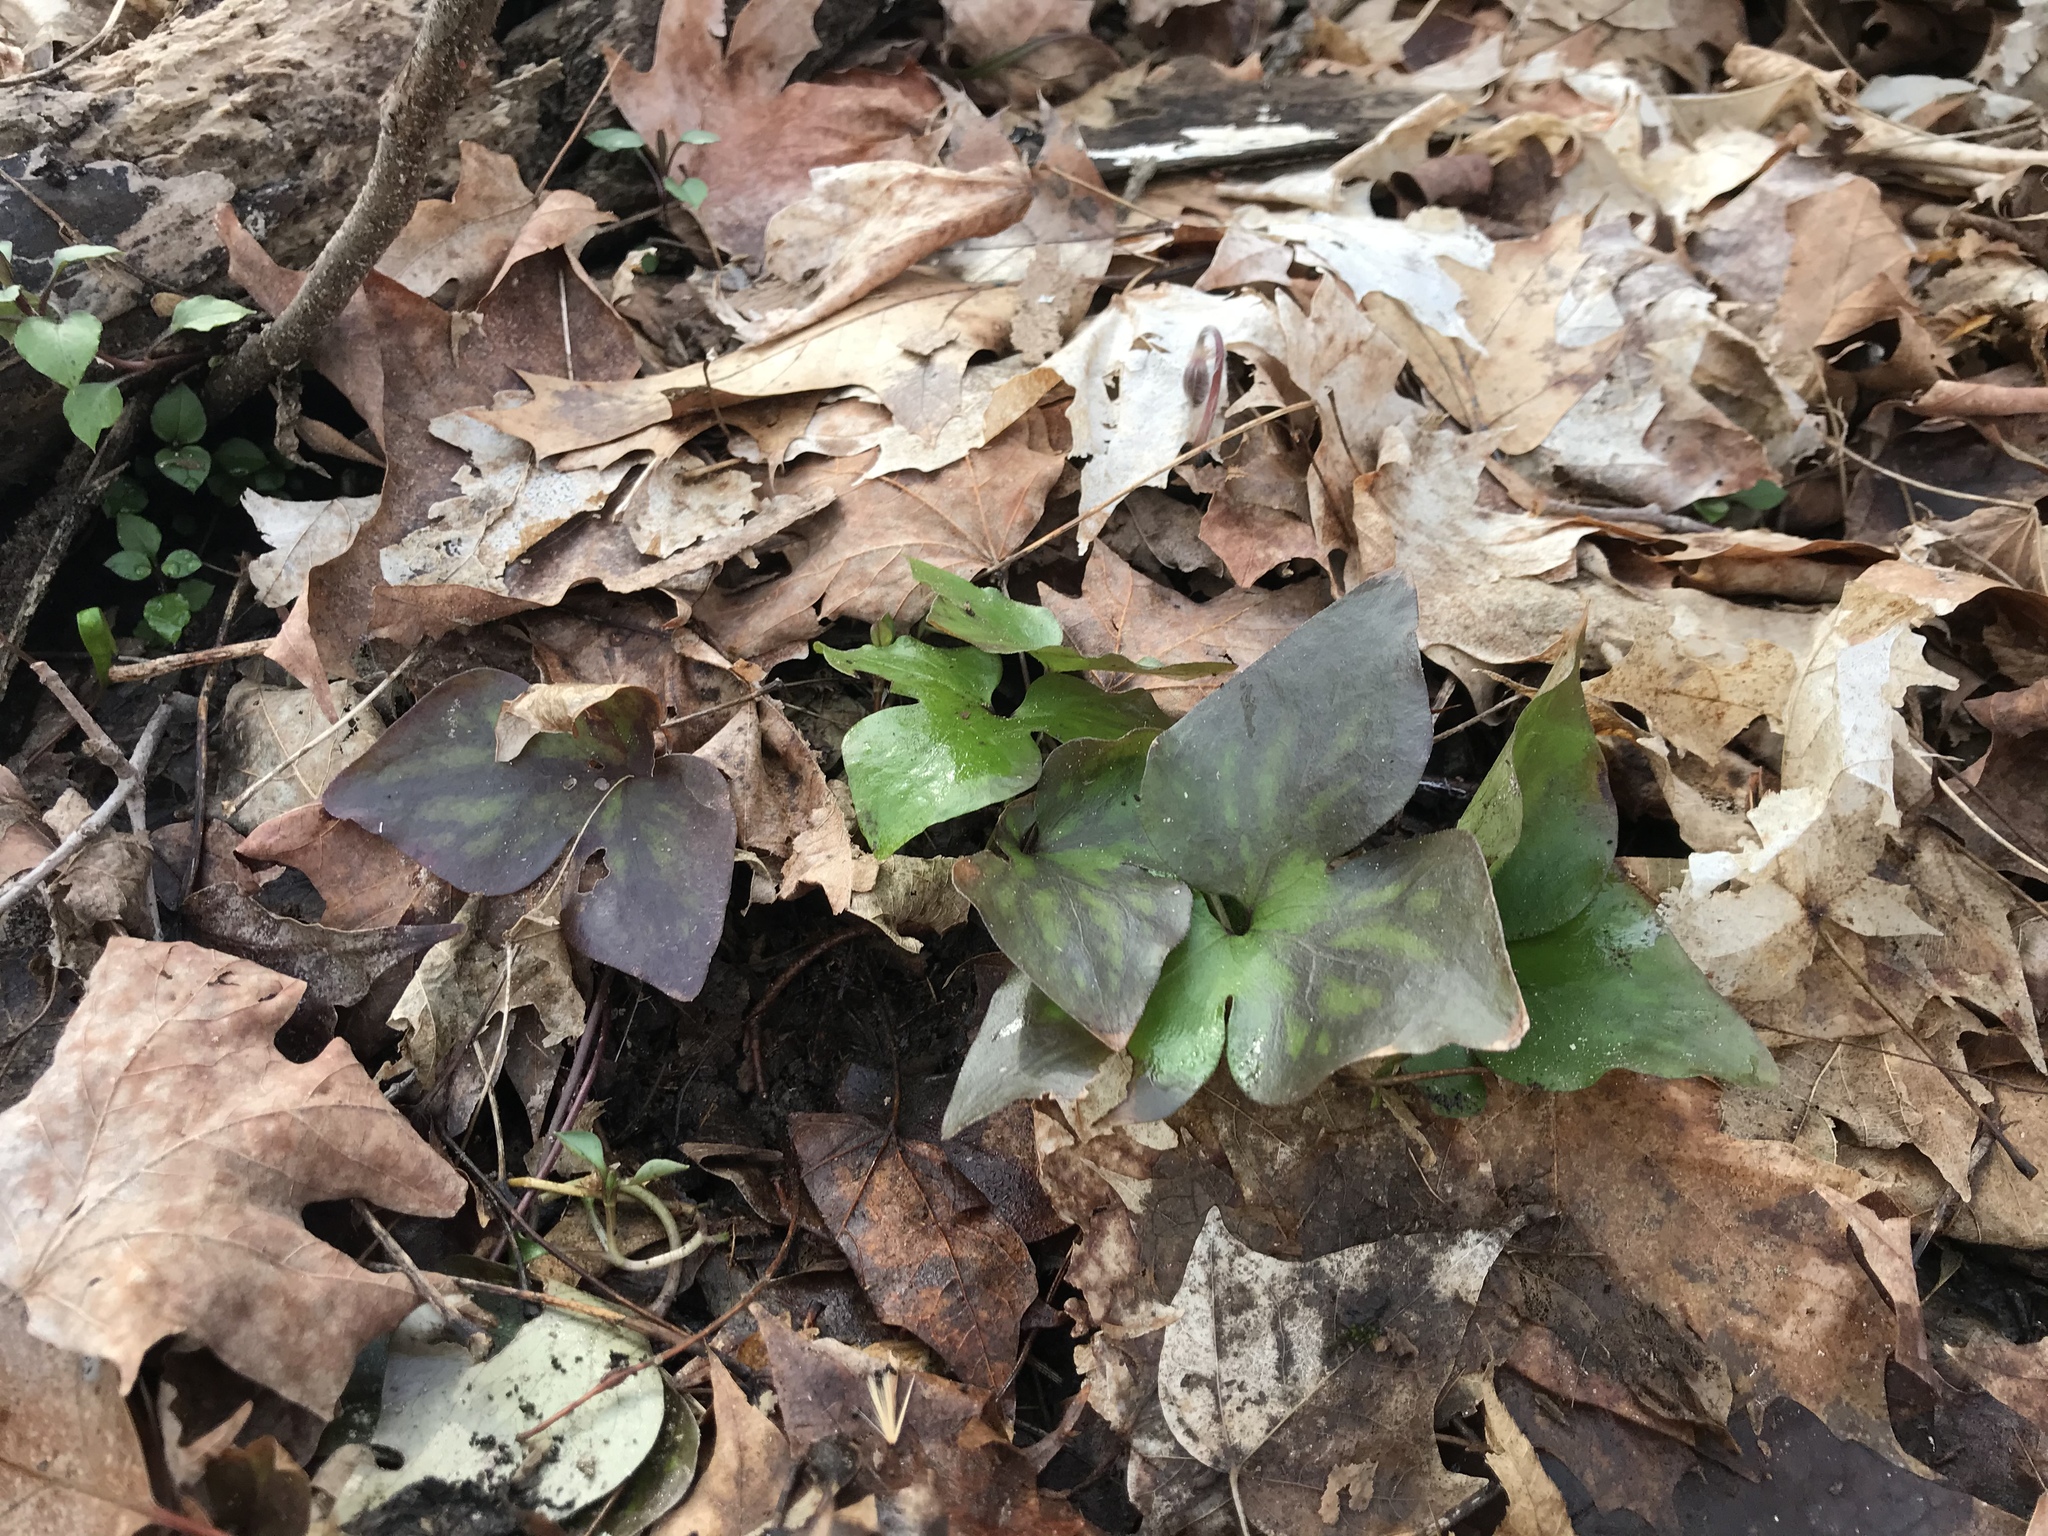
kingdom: Plantae
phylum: Tracheophyta
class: Magnoliopsida
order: Ranunculales
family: Ranunculaceae
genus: Hepatica
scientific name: Hepatica acutiloba
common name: Sharp-lobed hepatica
